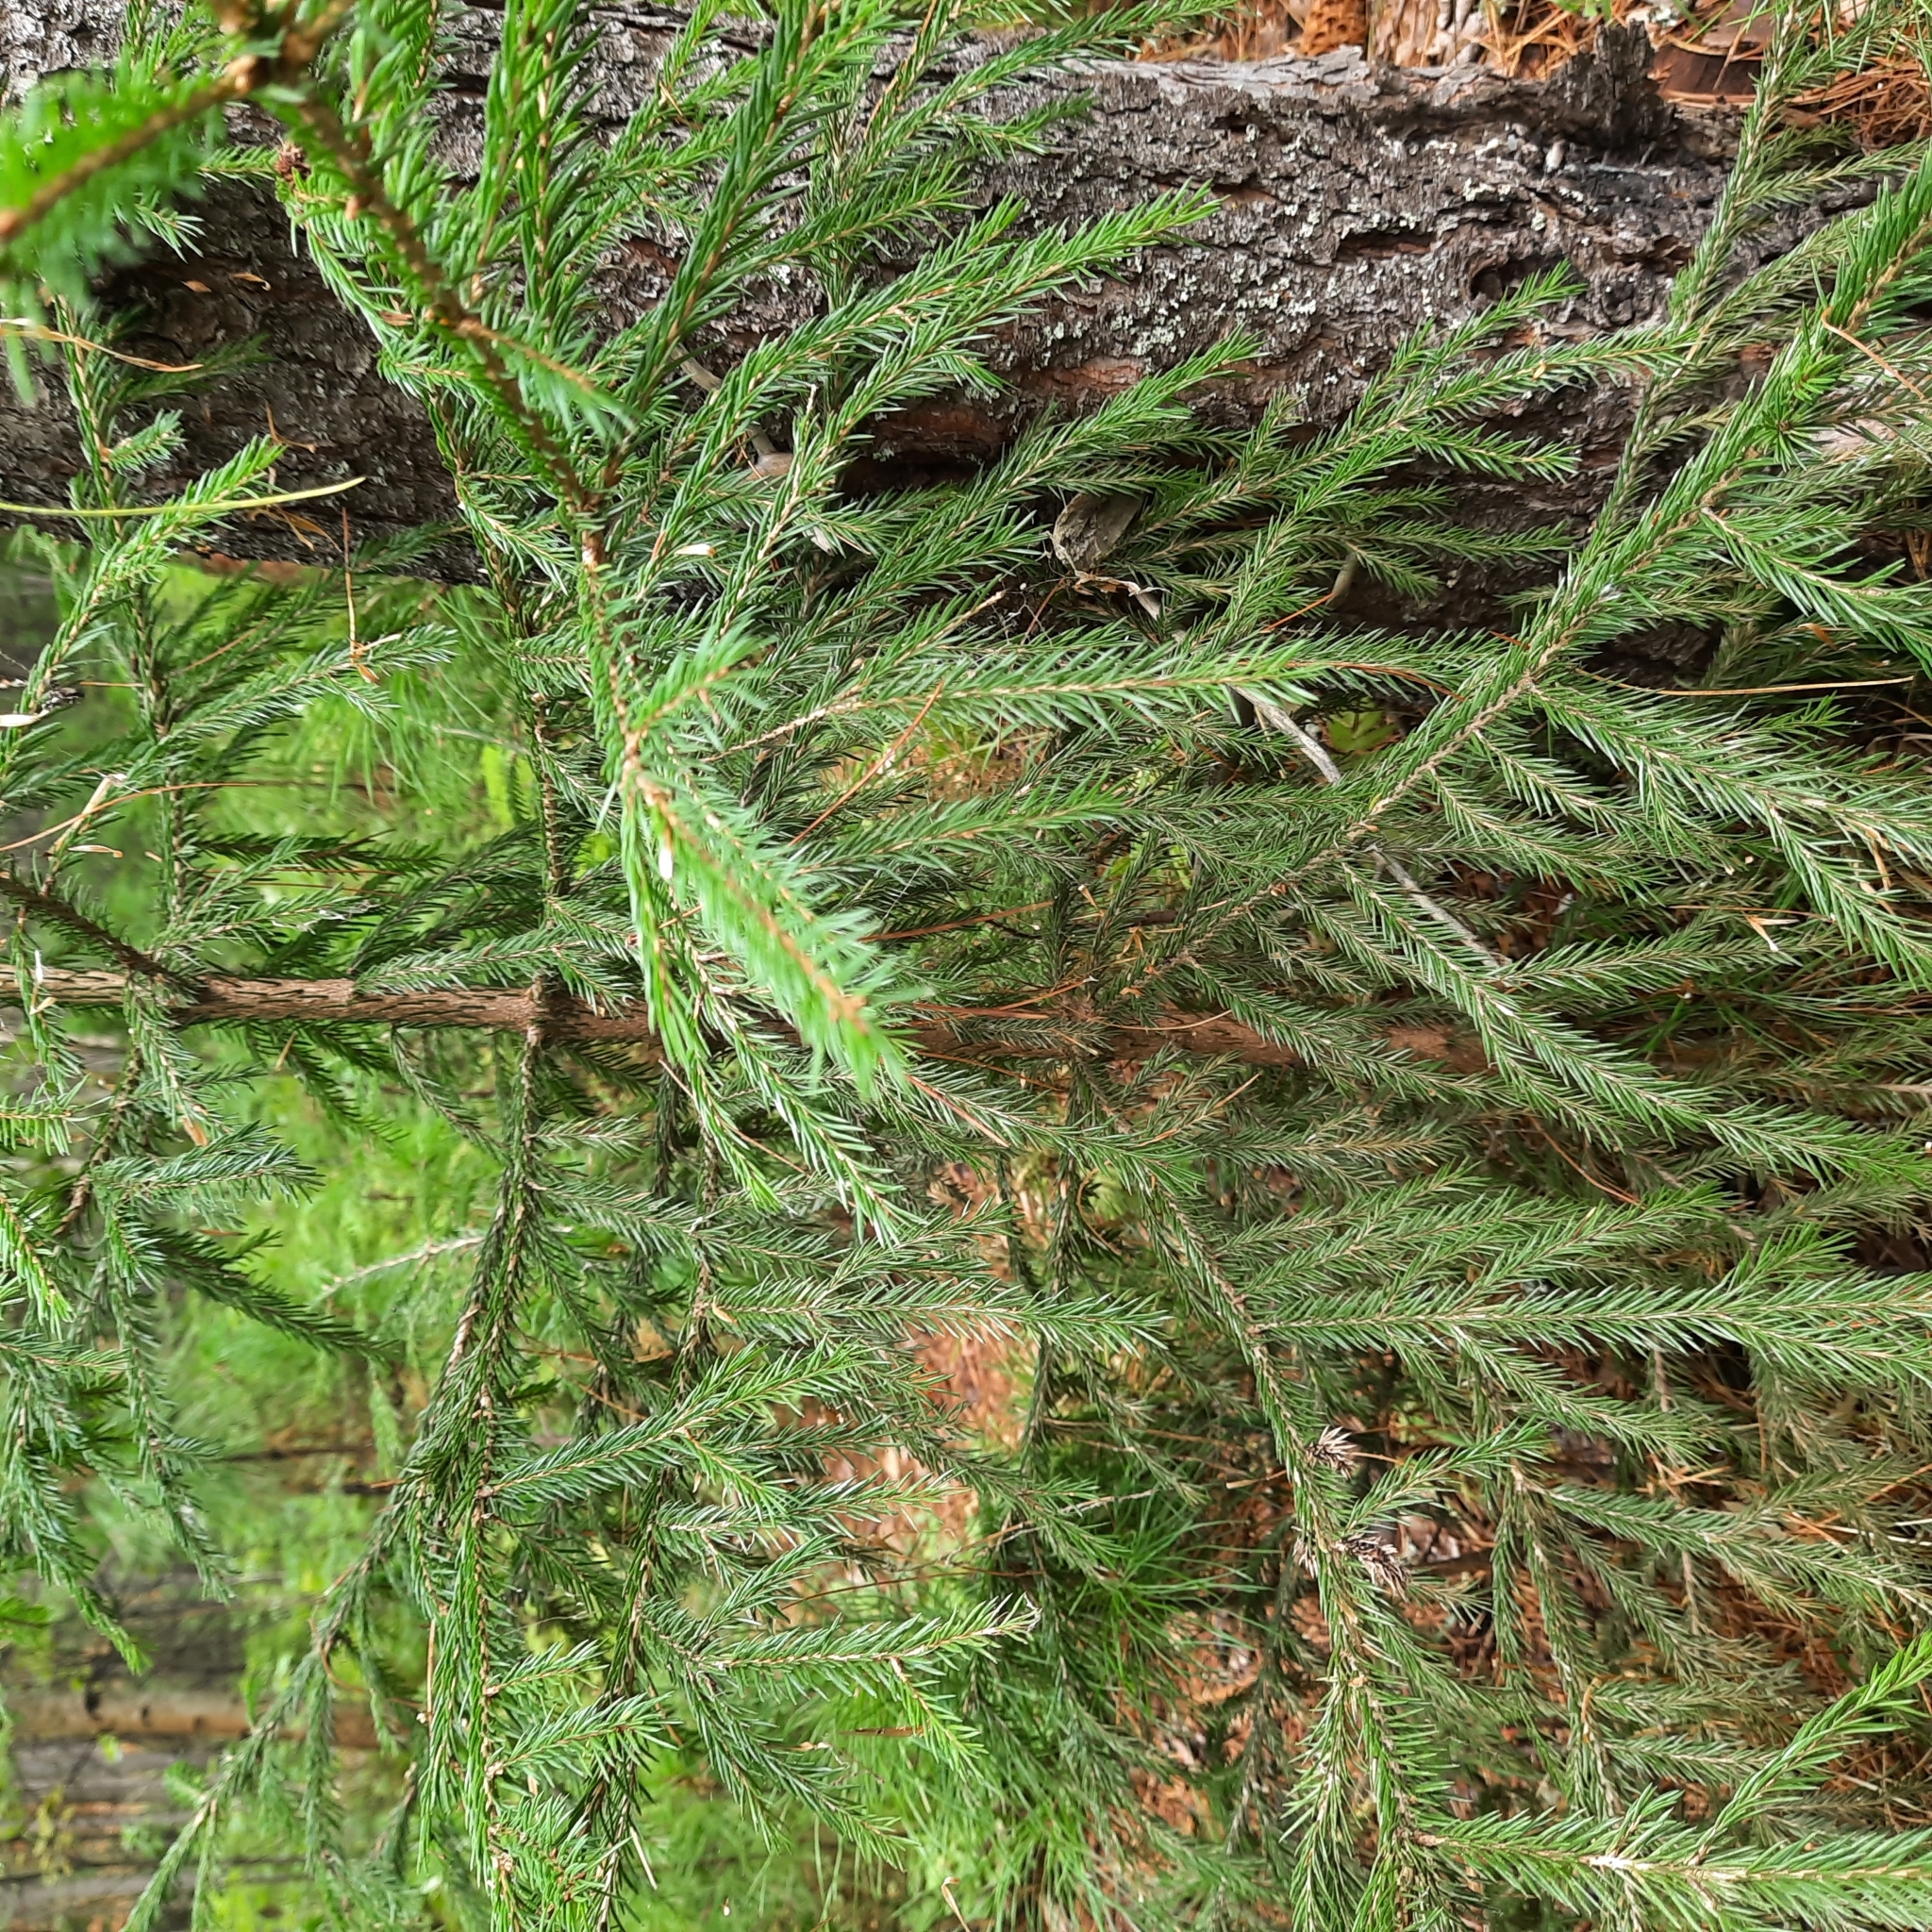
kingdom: Plantae
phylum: Tracheophyta
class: Pinopsida
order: Pinales
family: Pinaceae
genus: Picea
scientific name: Picea obovata
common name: Siberian spruce
